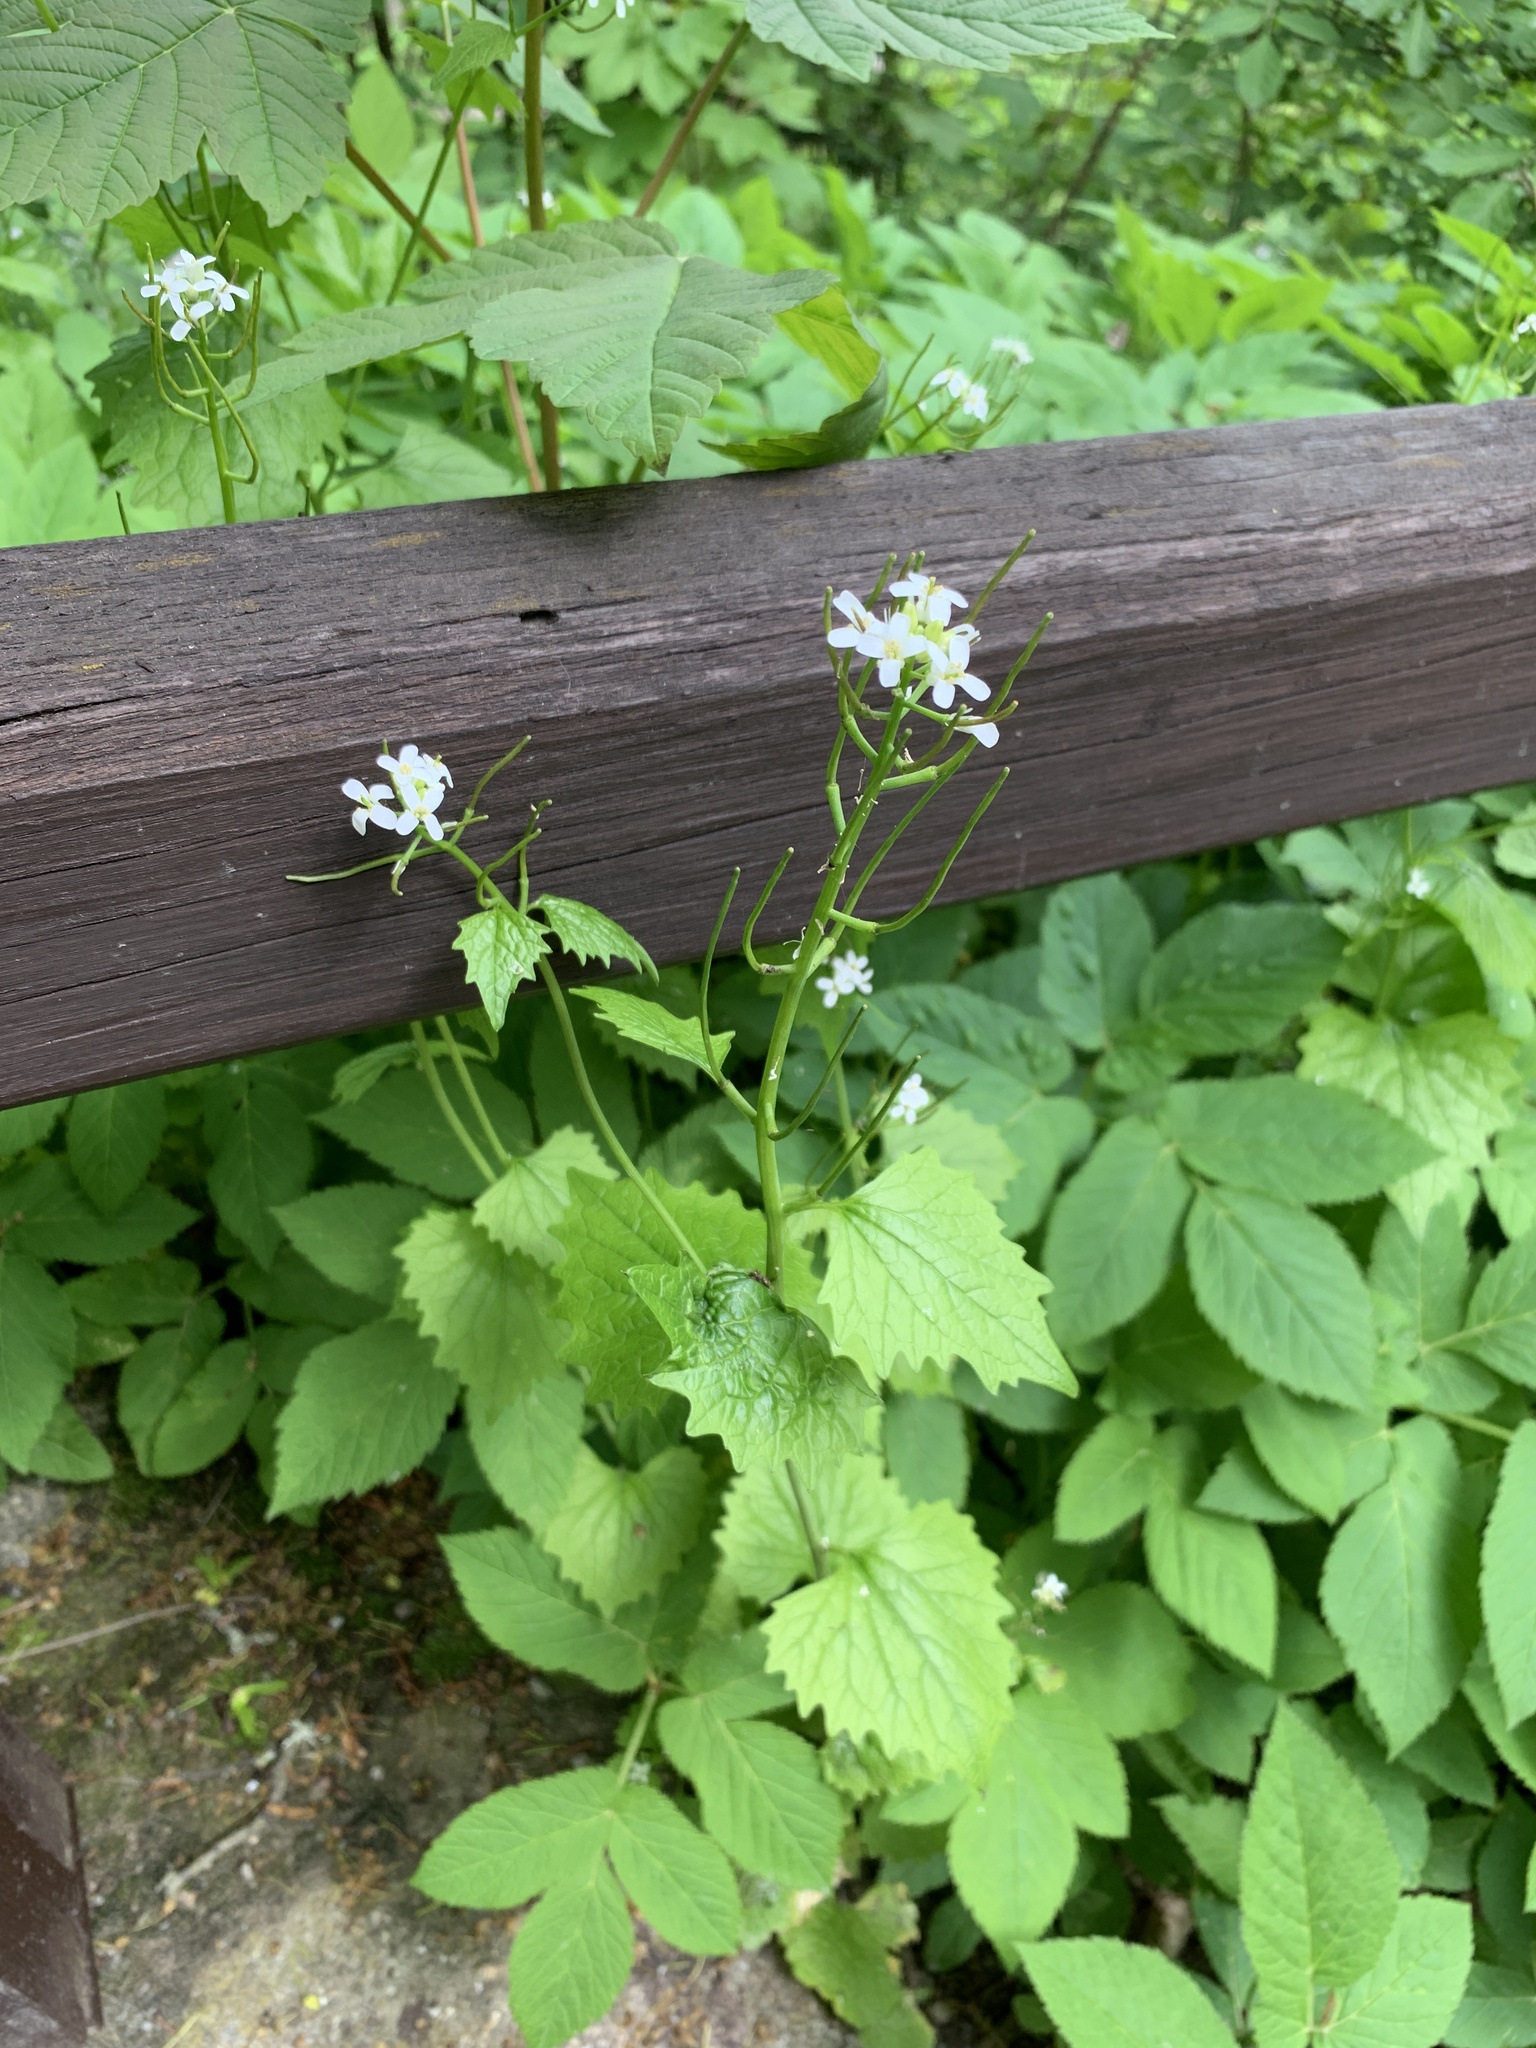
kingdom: Plantae
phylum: Tracheophyta
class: Magnoliopsida
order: Brassicales
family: Brassicaceae
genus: Alliaria
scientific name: Alliaria petiolata
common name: Garlic mustard
